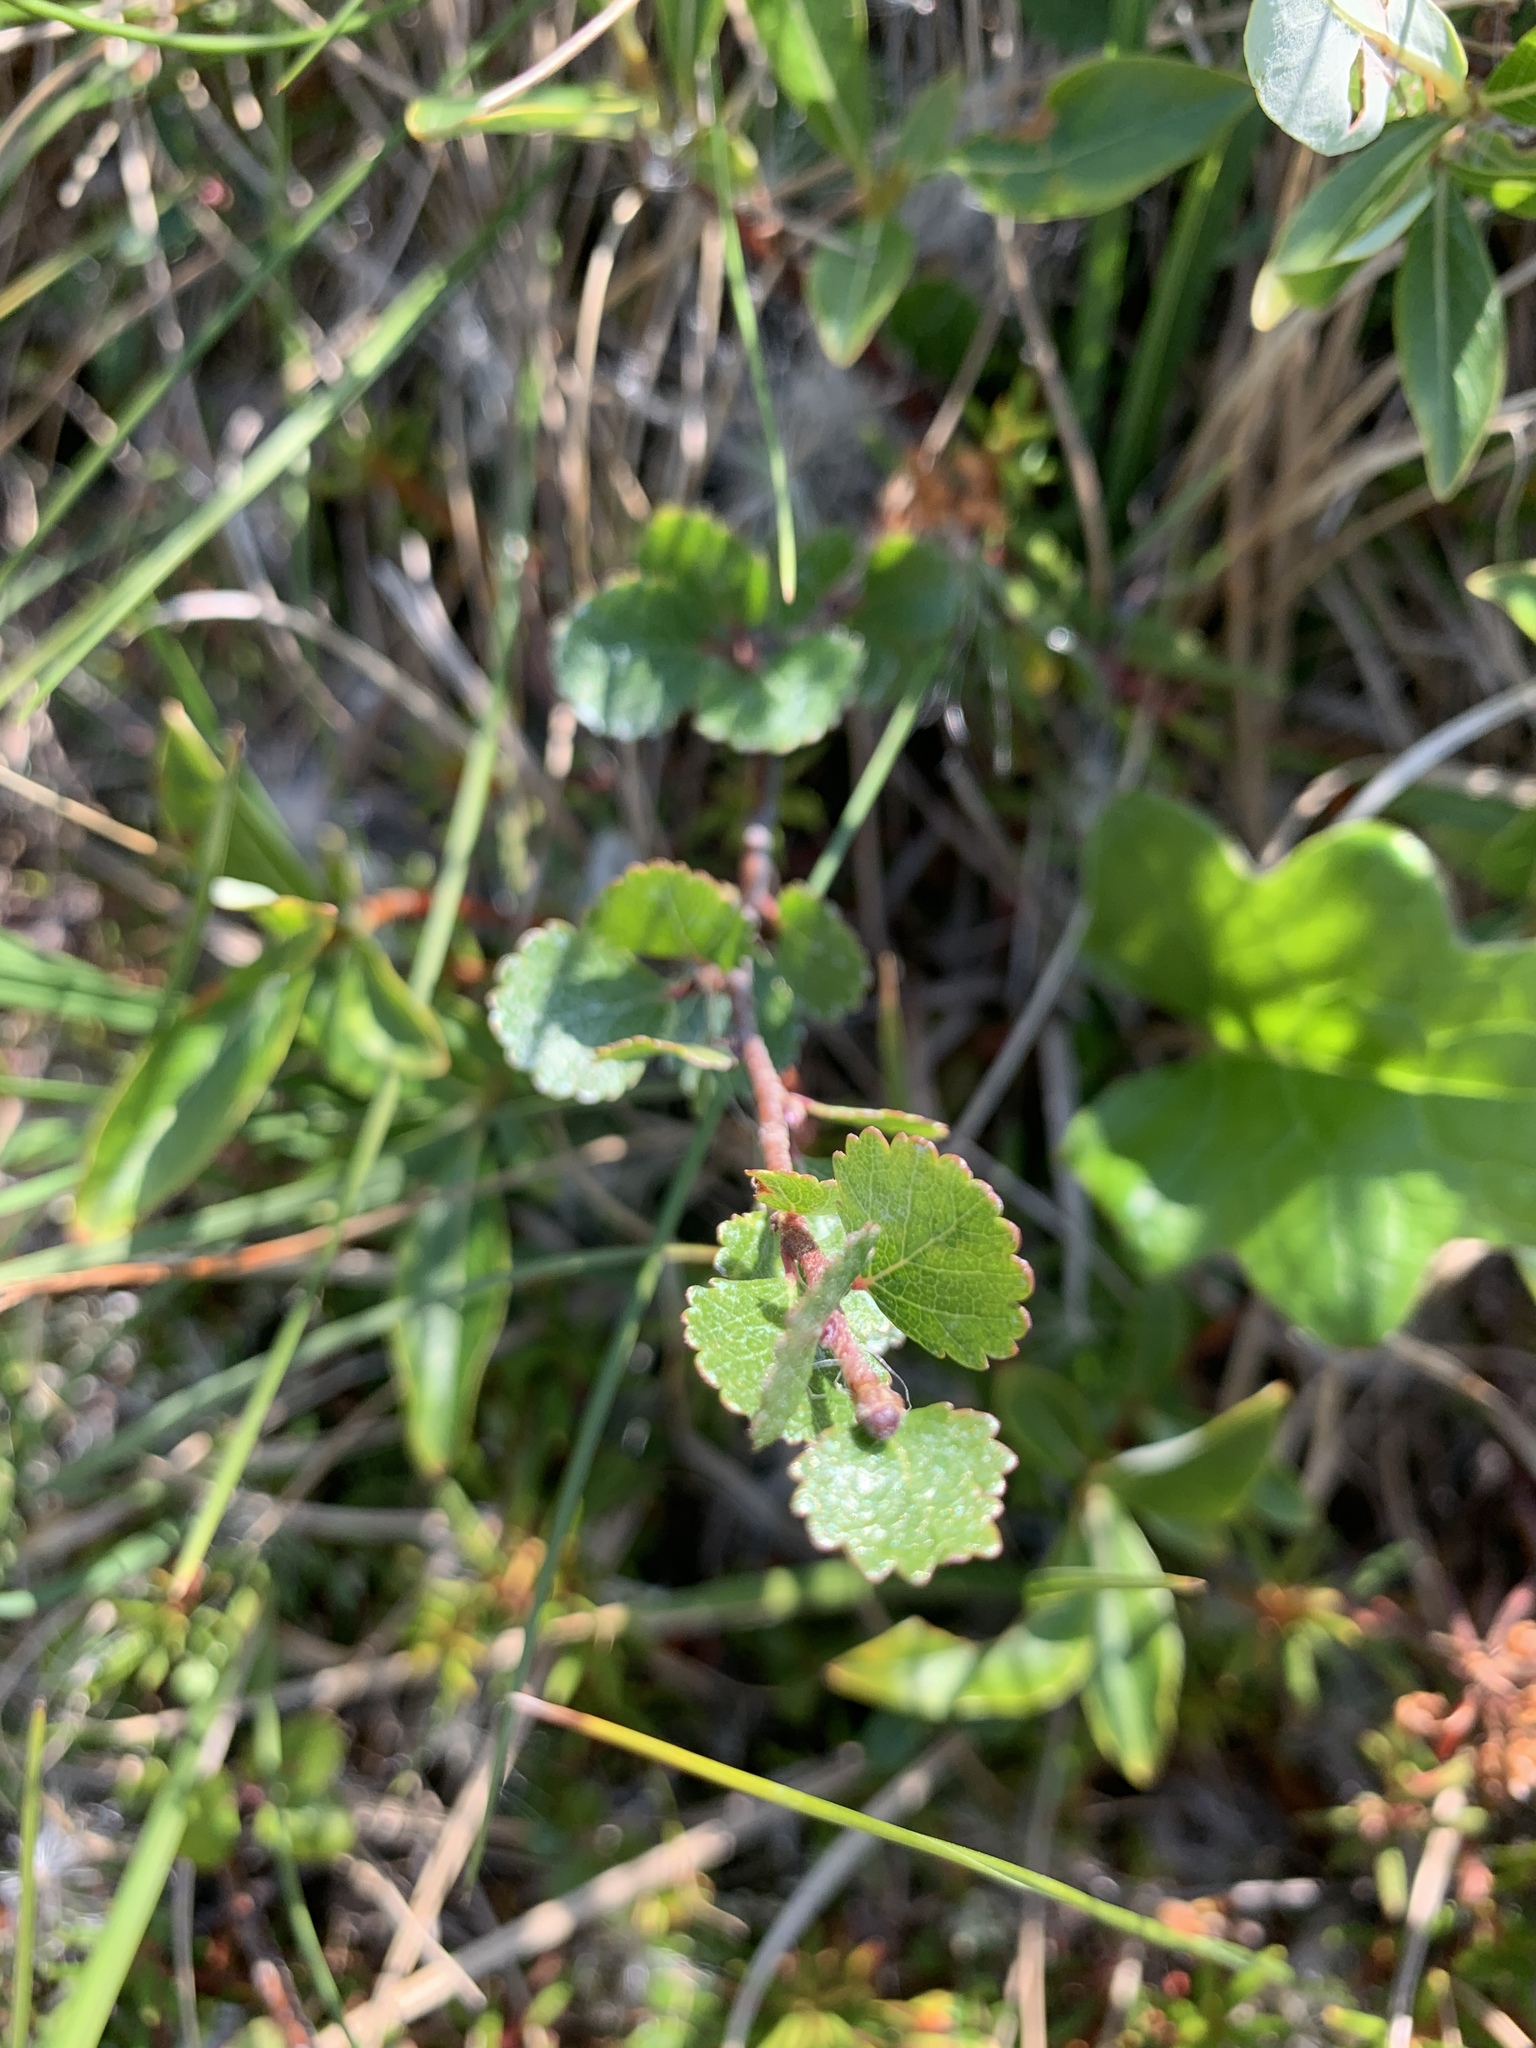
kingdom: Plantae
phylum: Tracheophyta
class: Magnoliopsida
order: Fagales
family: Betulaceae
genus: Betula
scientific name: Betula nana
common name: Arctic dwarf birch
